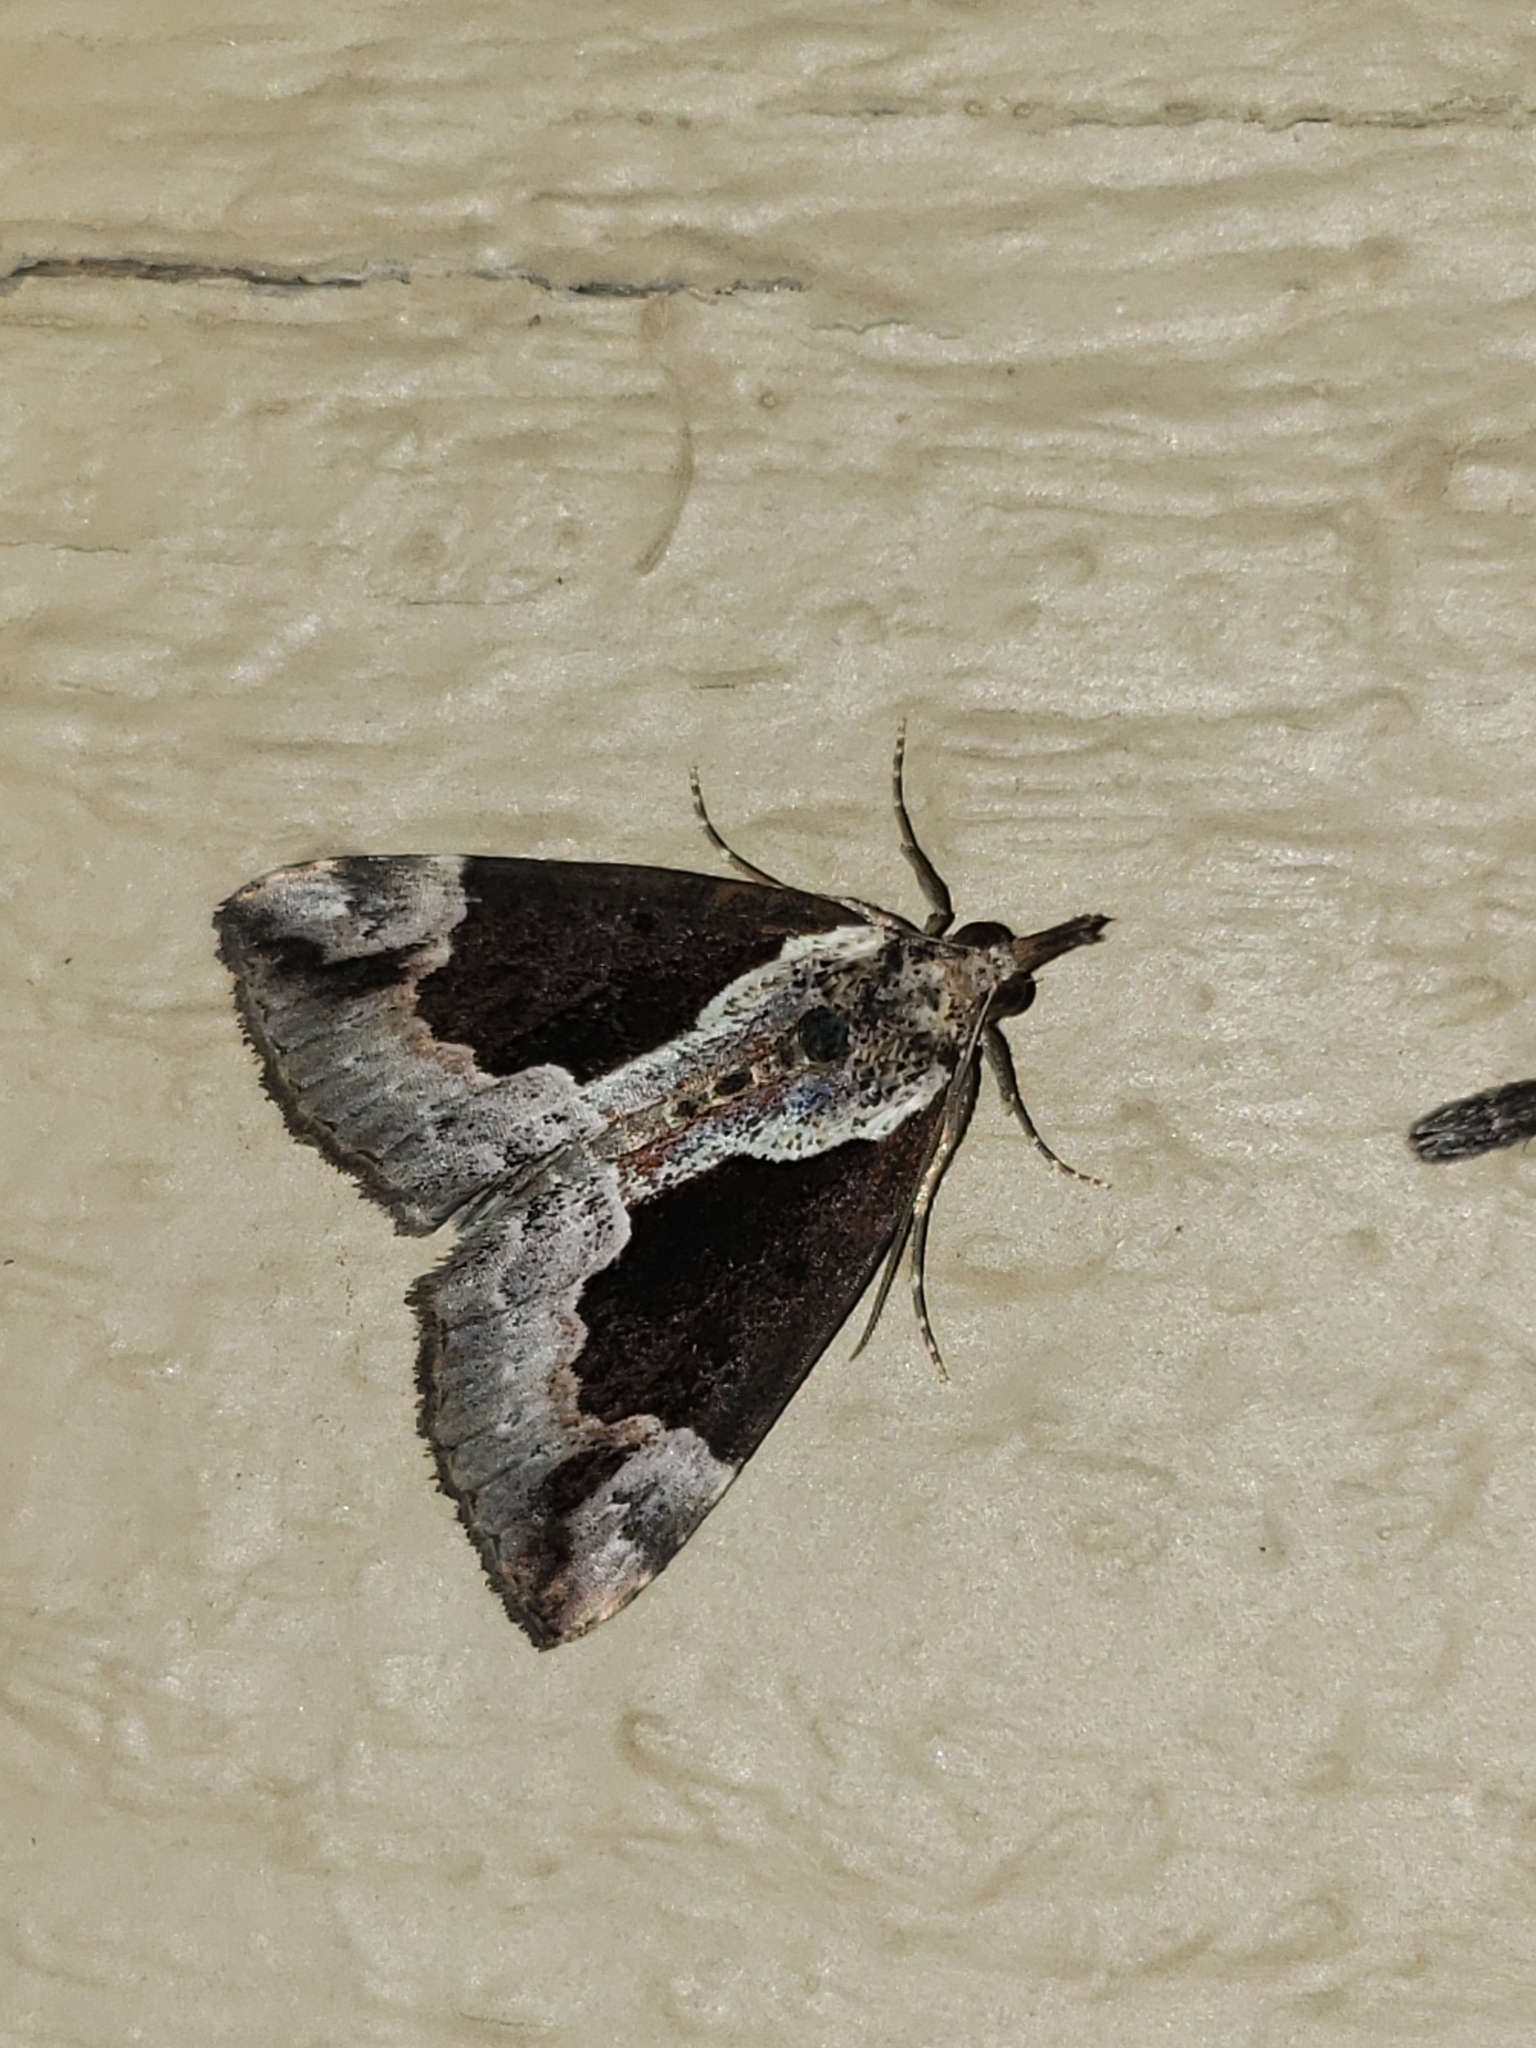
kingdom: Animalia
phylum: Arthropoda
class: Insecta
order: Lepidoptera
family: Erebidae
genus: Hypena
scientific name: Hypena baltimoralis
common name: Baltimore snout
